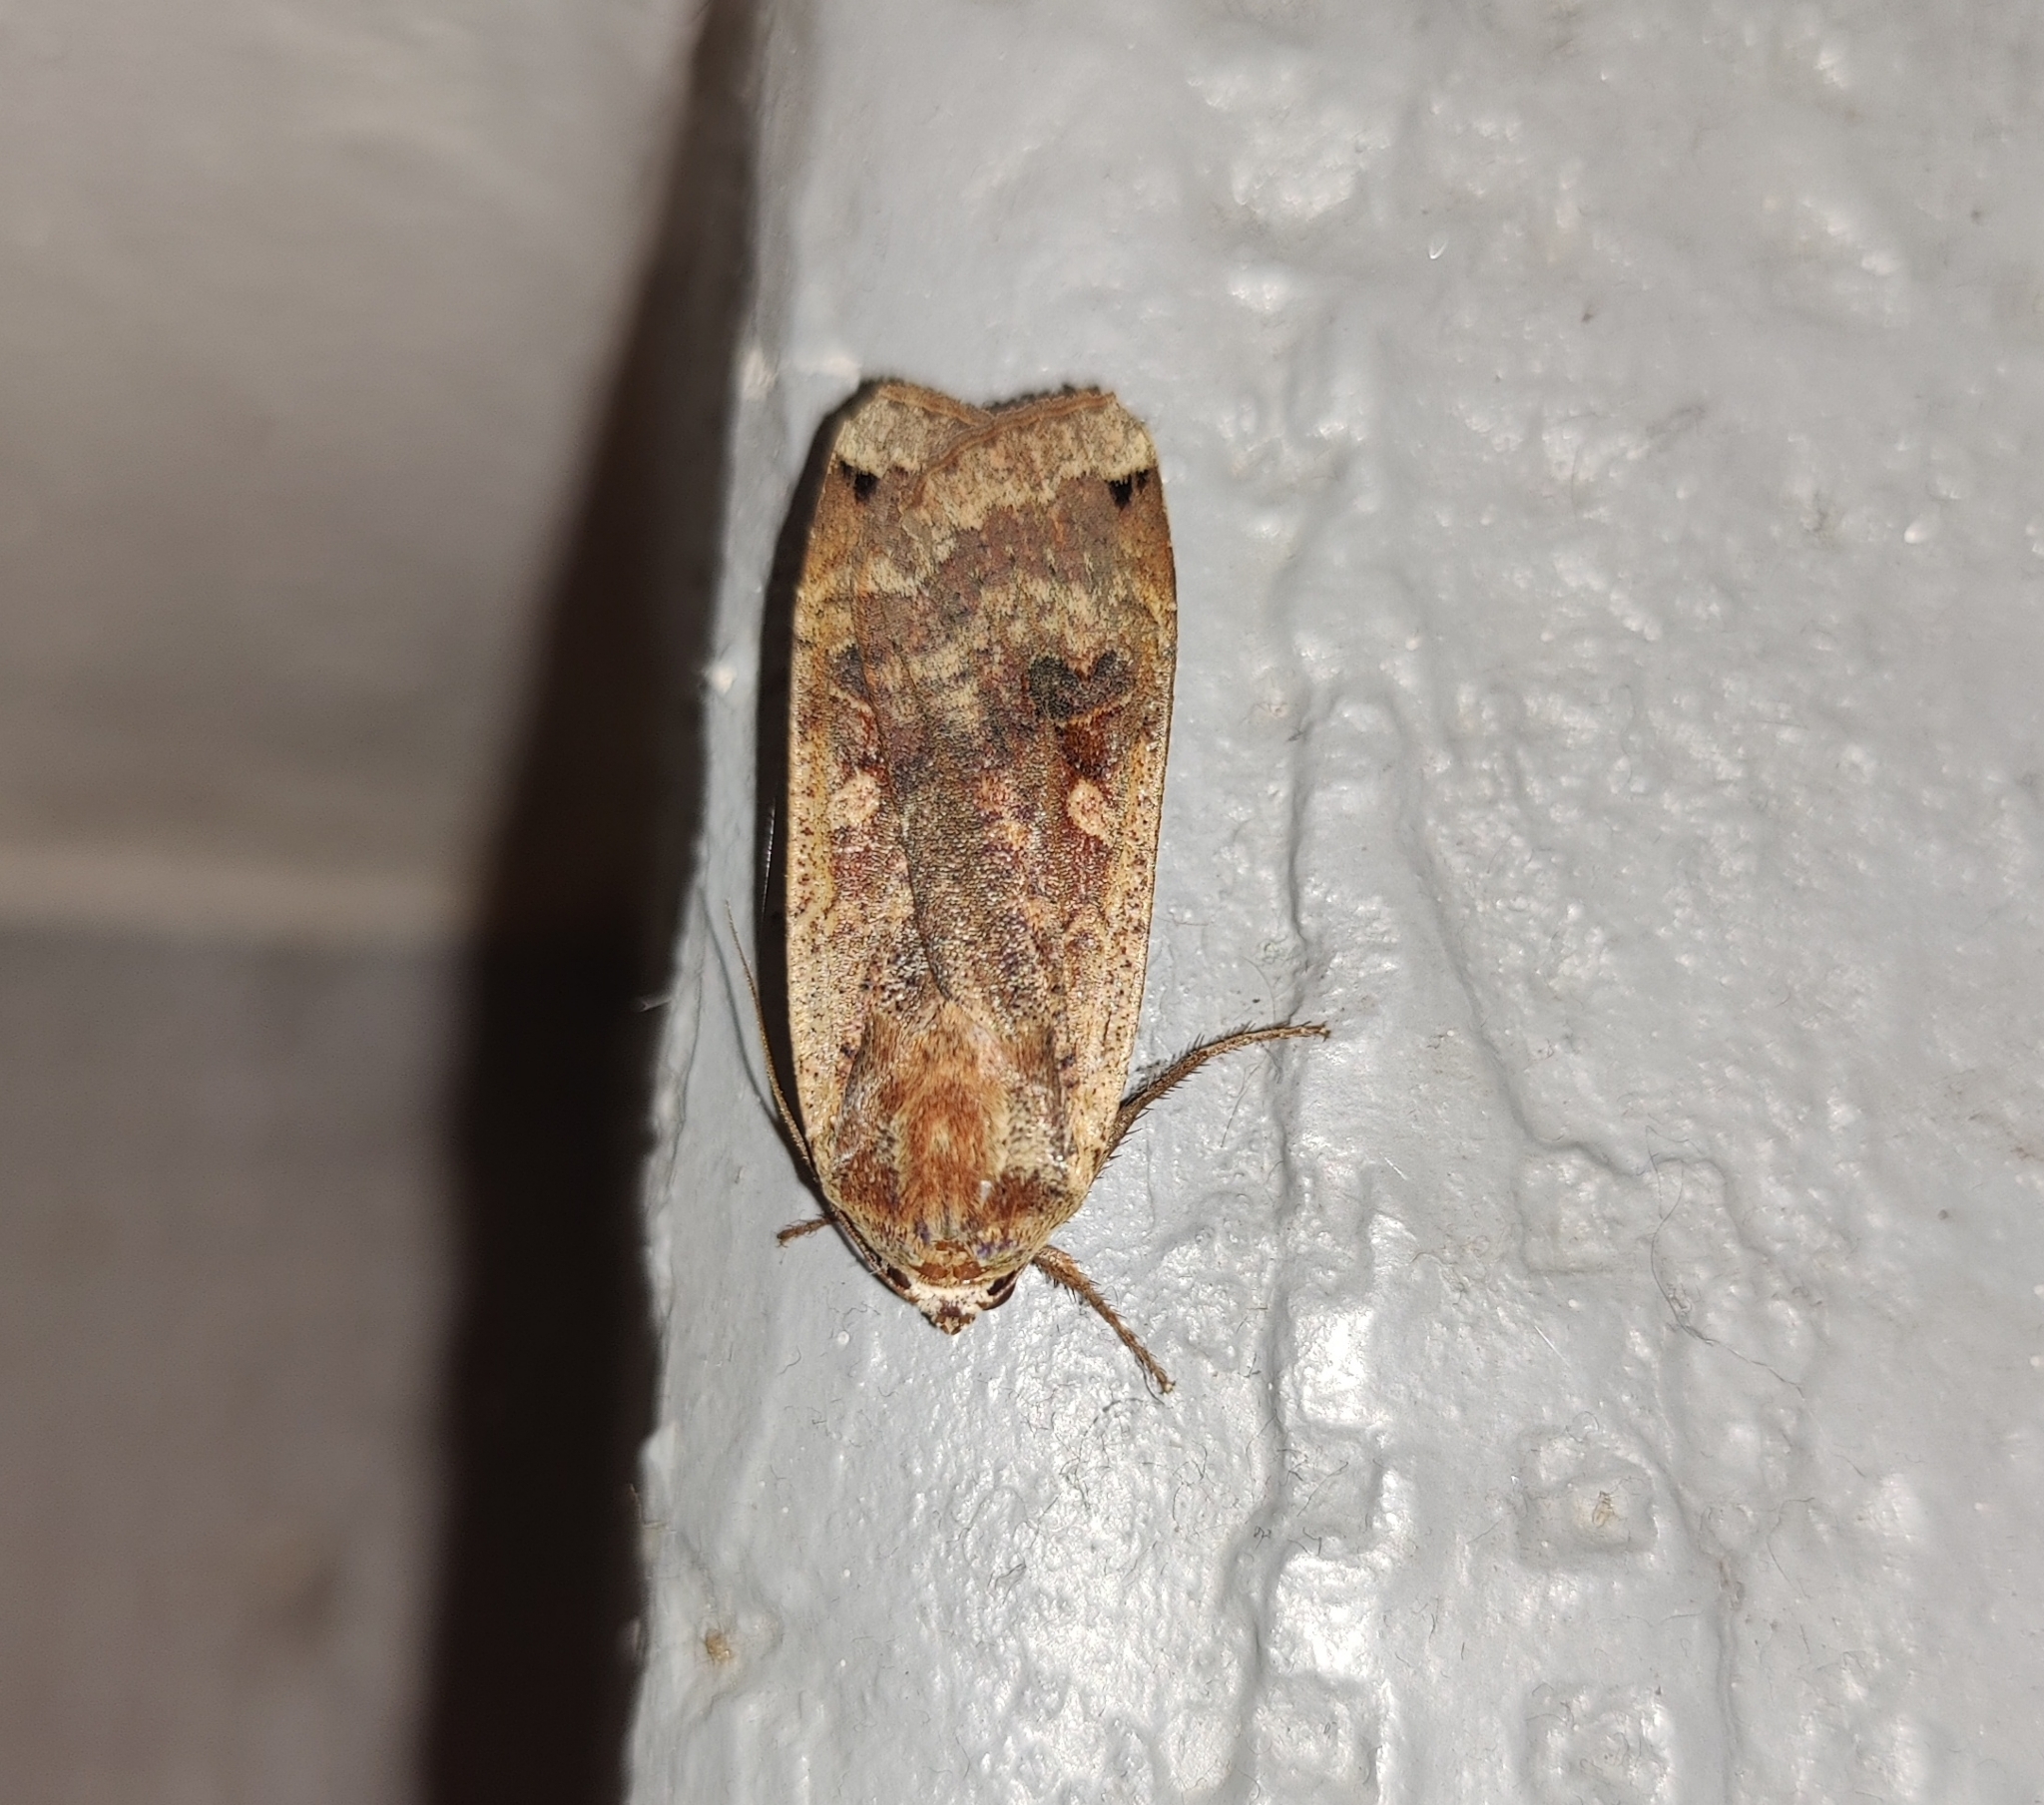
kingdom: Animalia
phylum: Arthropoda
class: Insecta
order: Lepidoptera
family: Noctuidae
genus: Noctua
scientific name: Noctua pronuba
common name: Large yellow underwing
